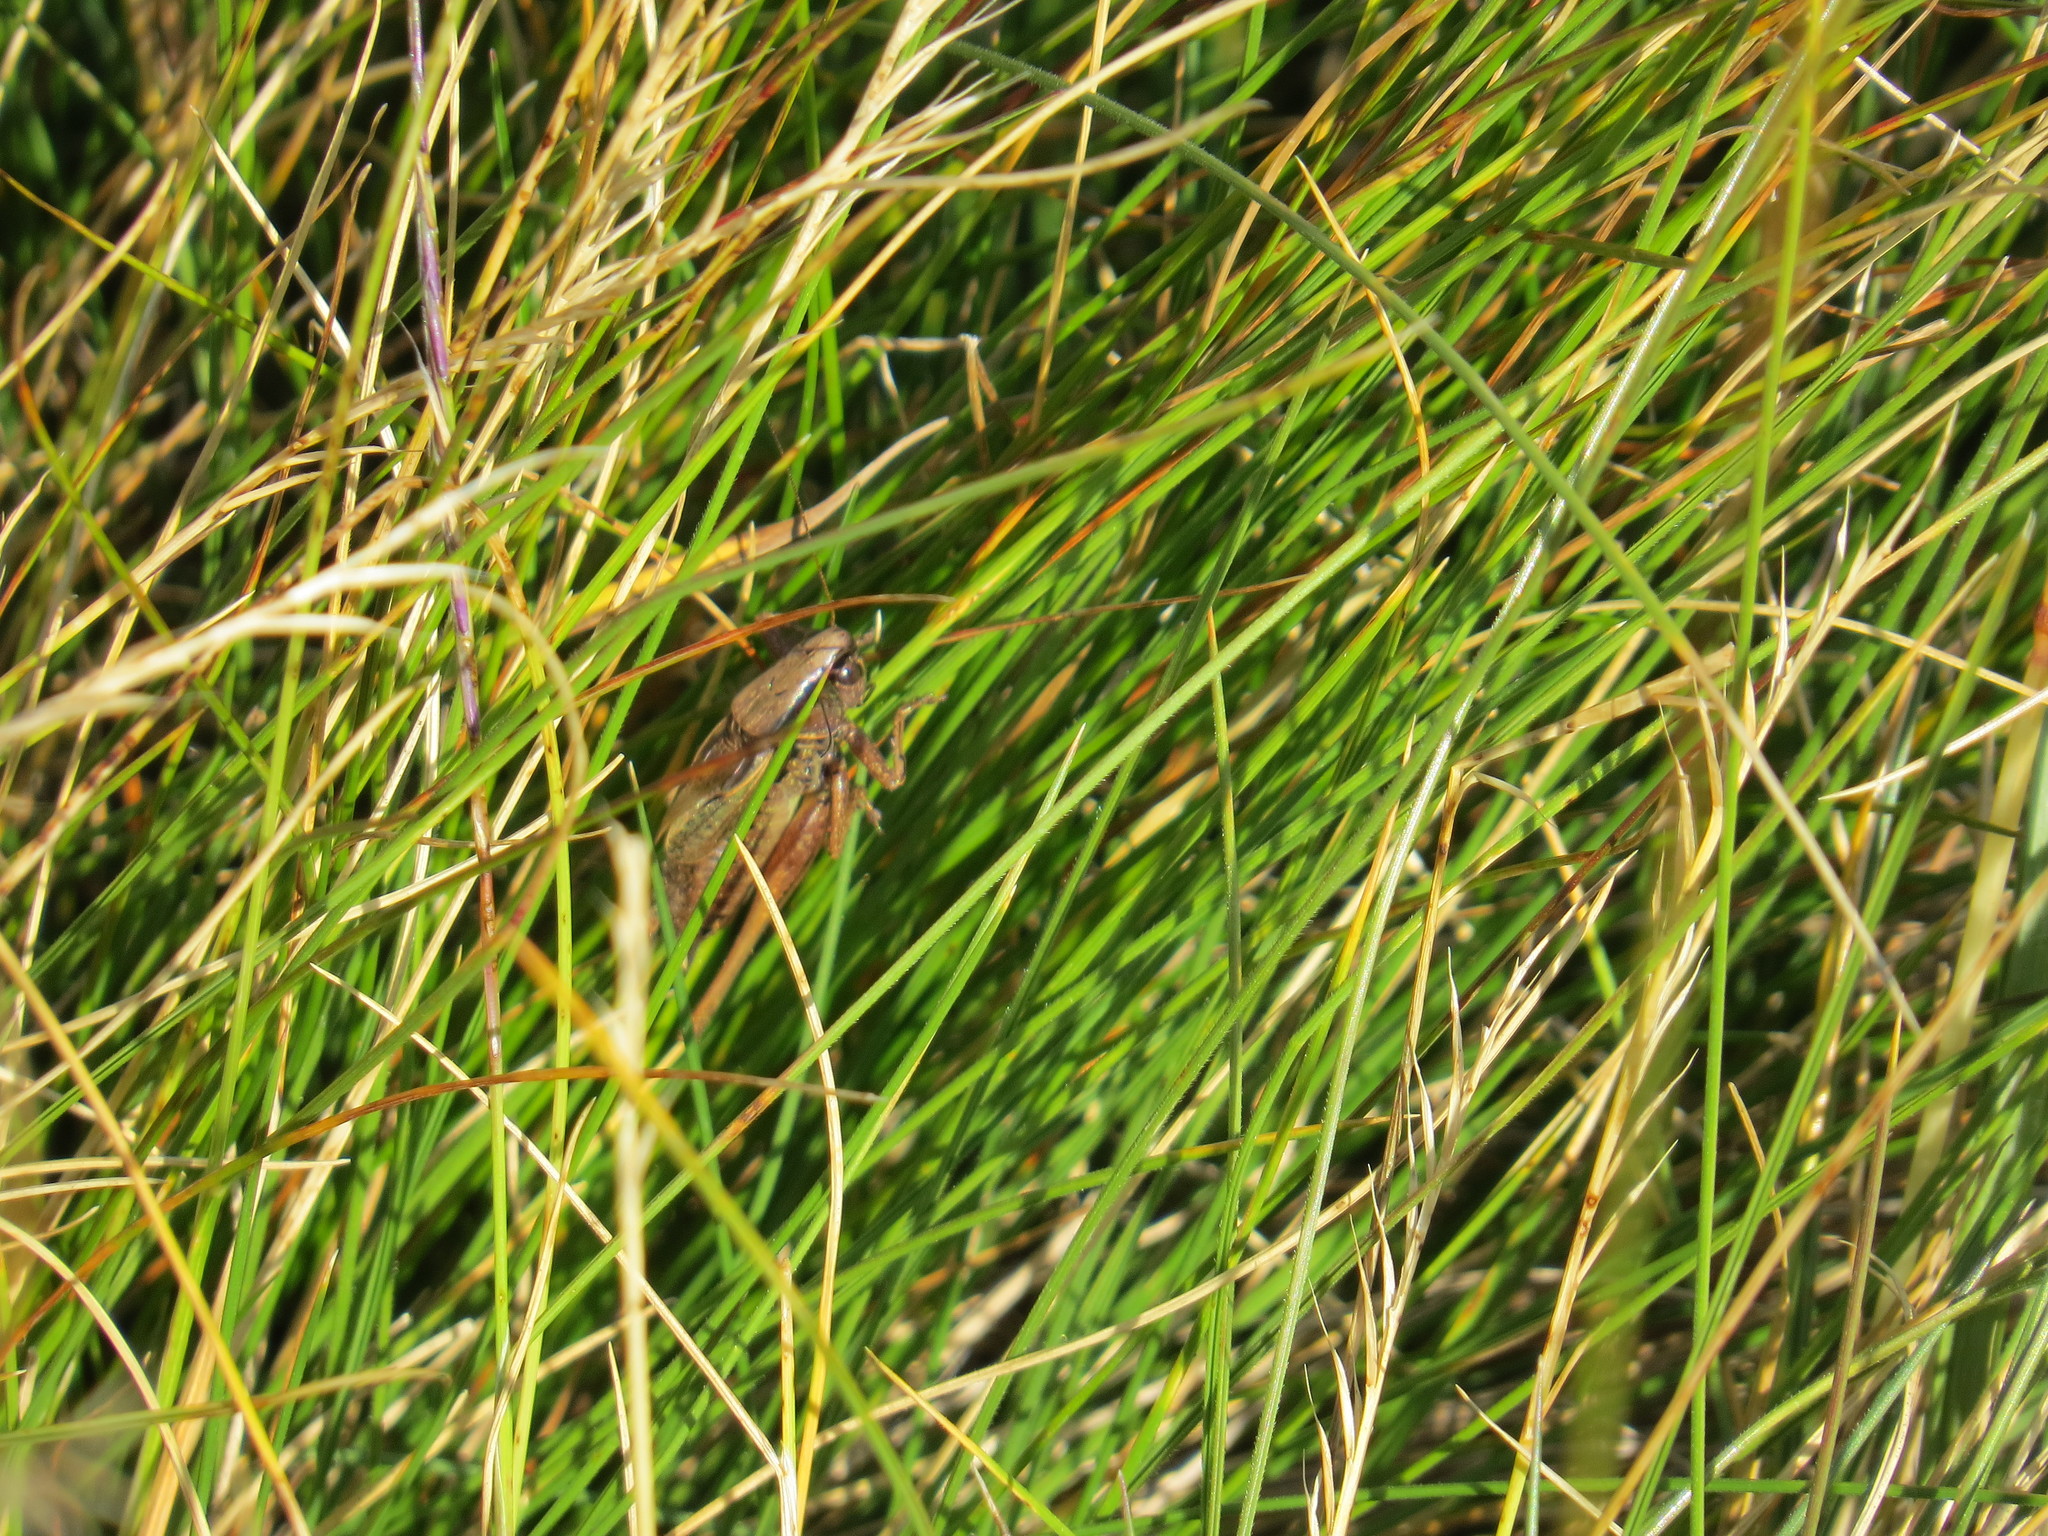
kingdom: Animalia
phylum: Arthropoda
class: Insecta
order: Orthoptera
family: Tettigoniidae
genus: Metrioptera
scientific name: Metrioptera saussuriana
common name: Purple meadow bush-cricket
